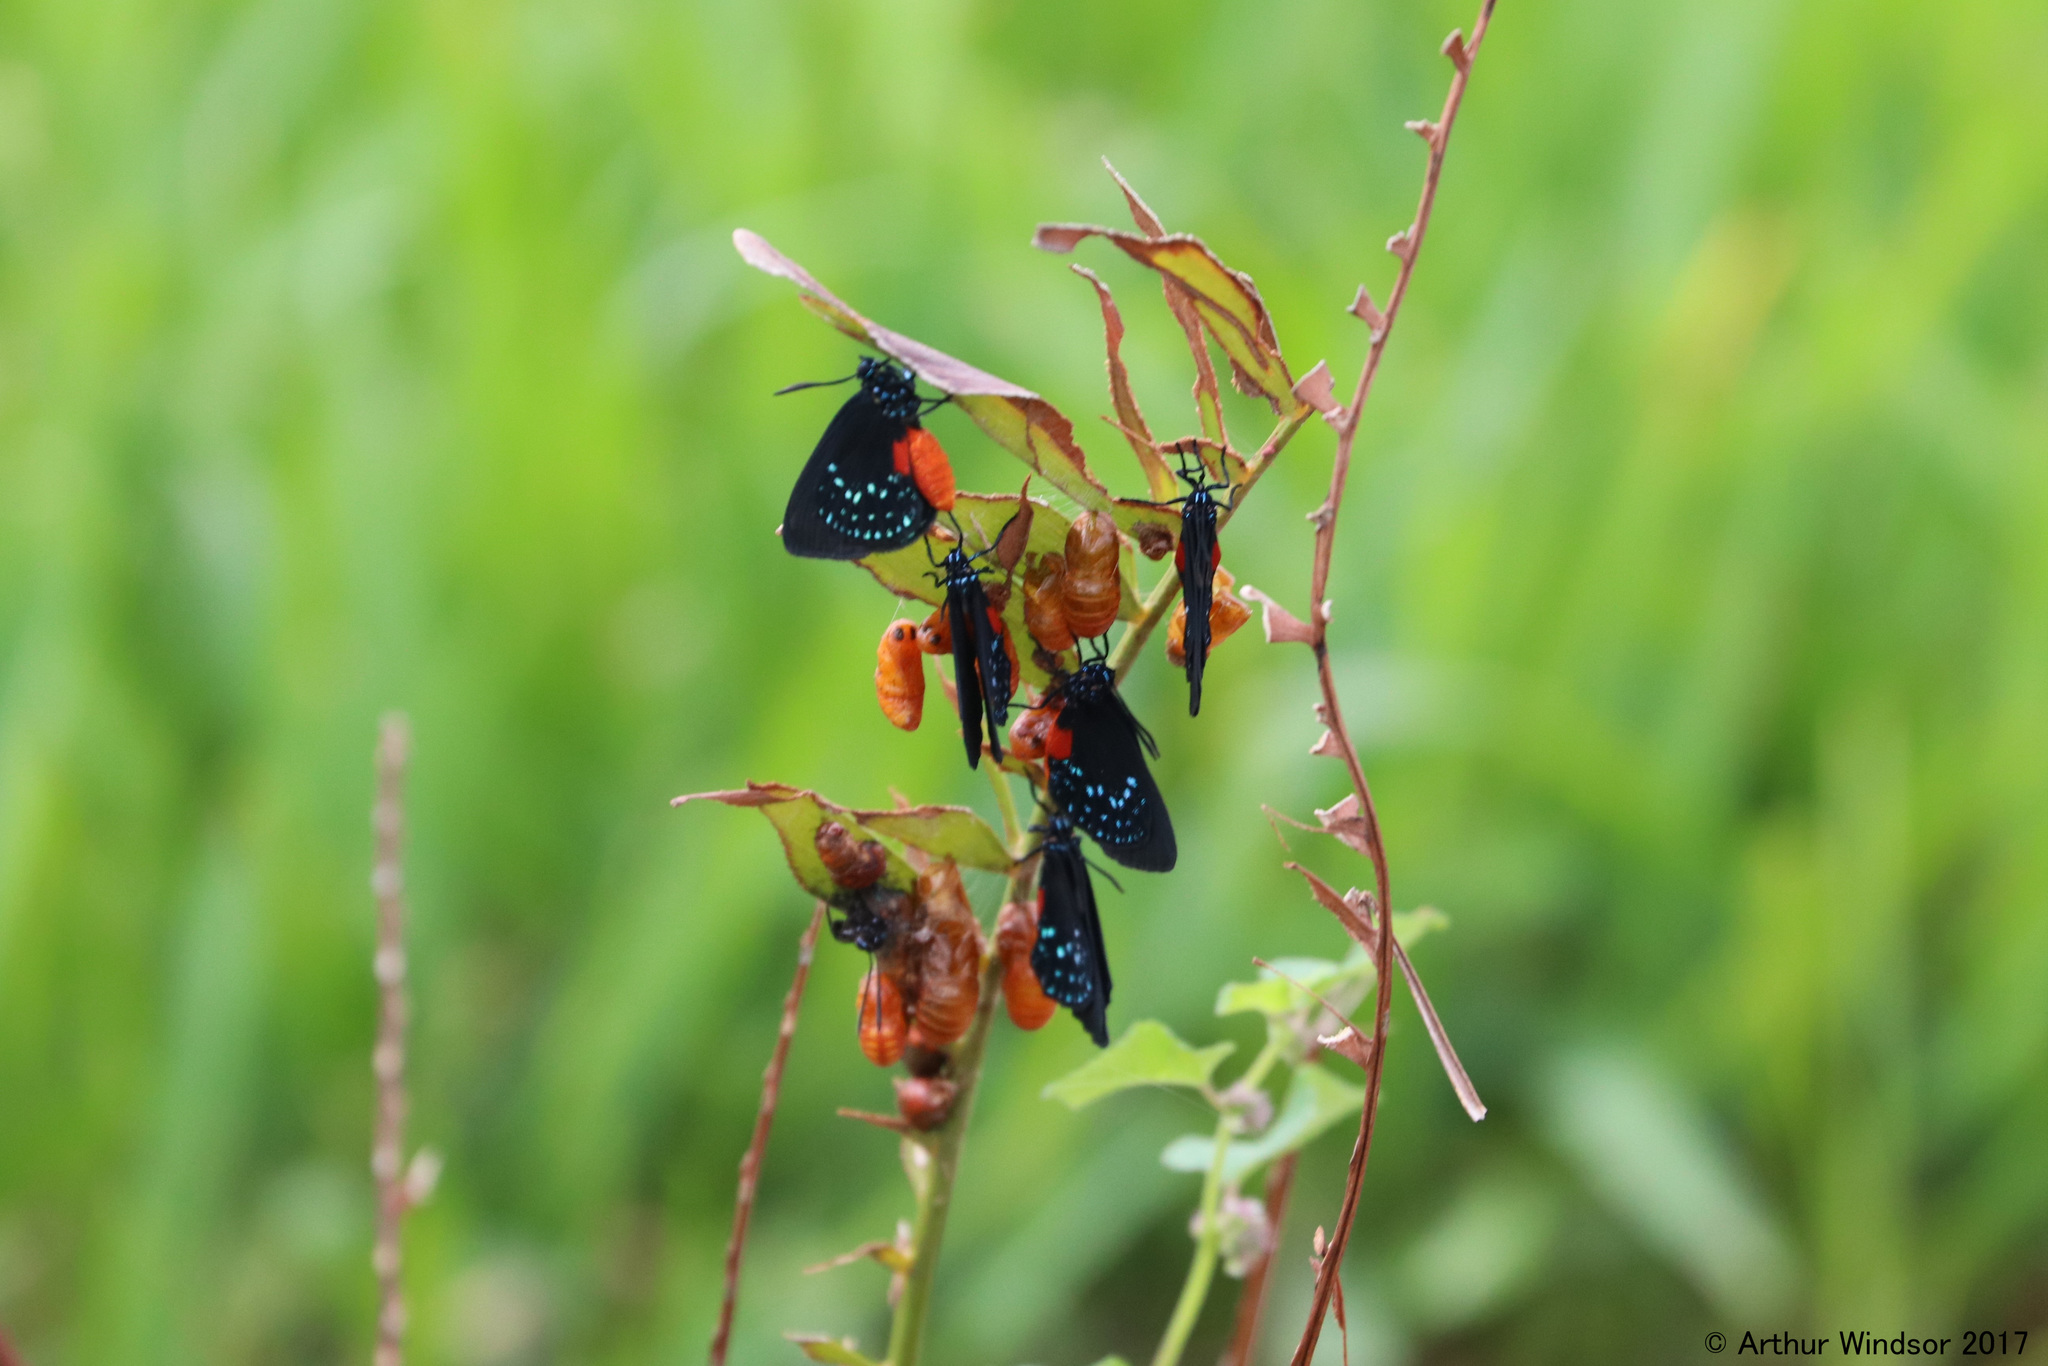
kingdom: Animalia
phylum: Arthropoda
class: Insecta
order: Lepidoptera
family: Lycaenidae
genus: Eumaeus
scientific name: Eumaeus atala
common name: Atala
